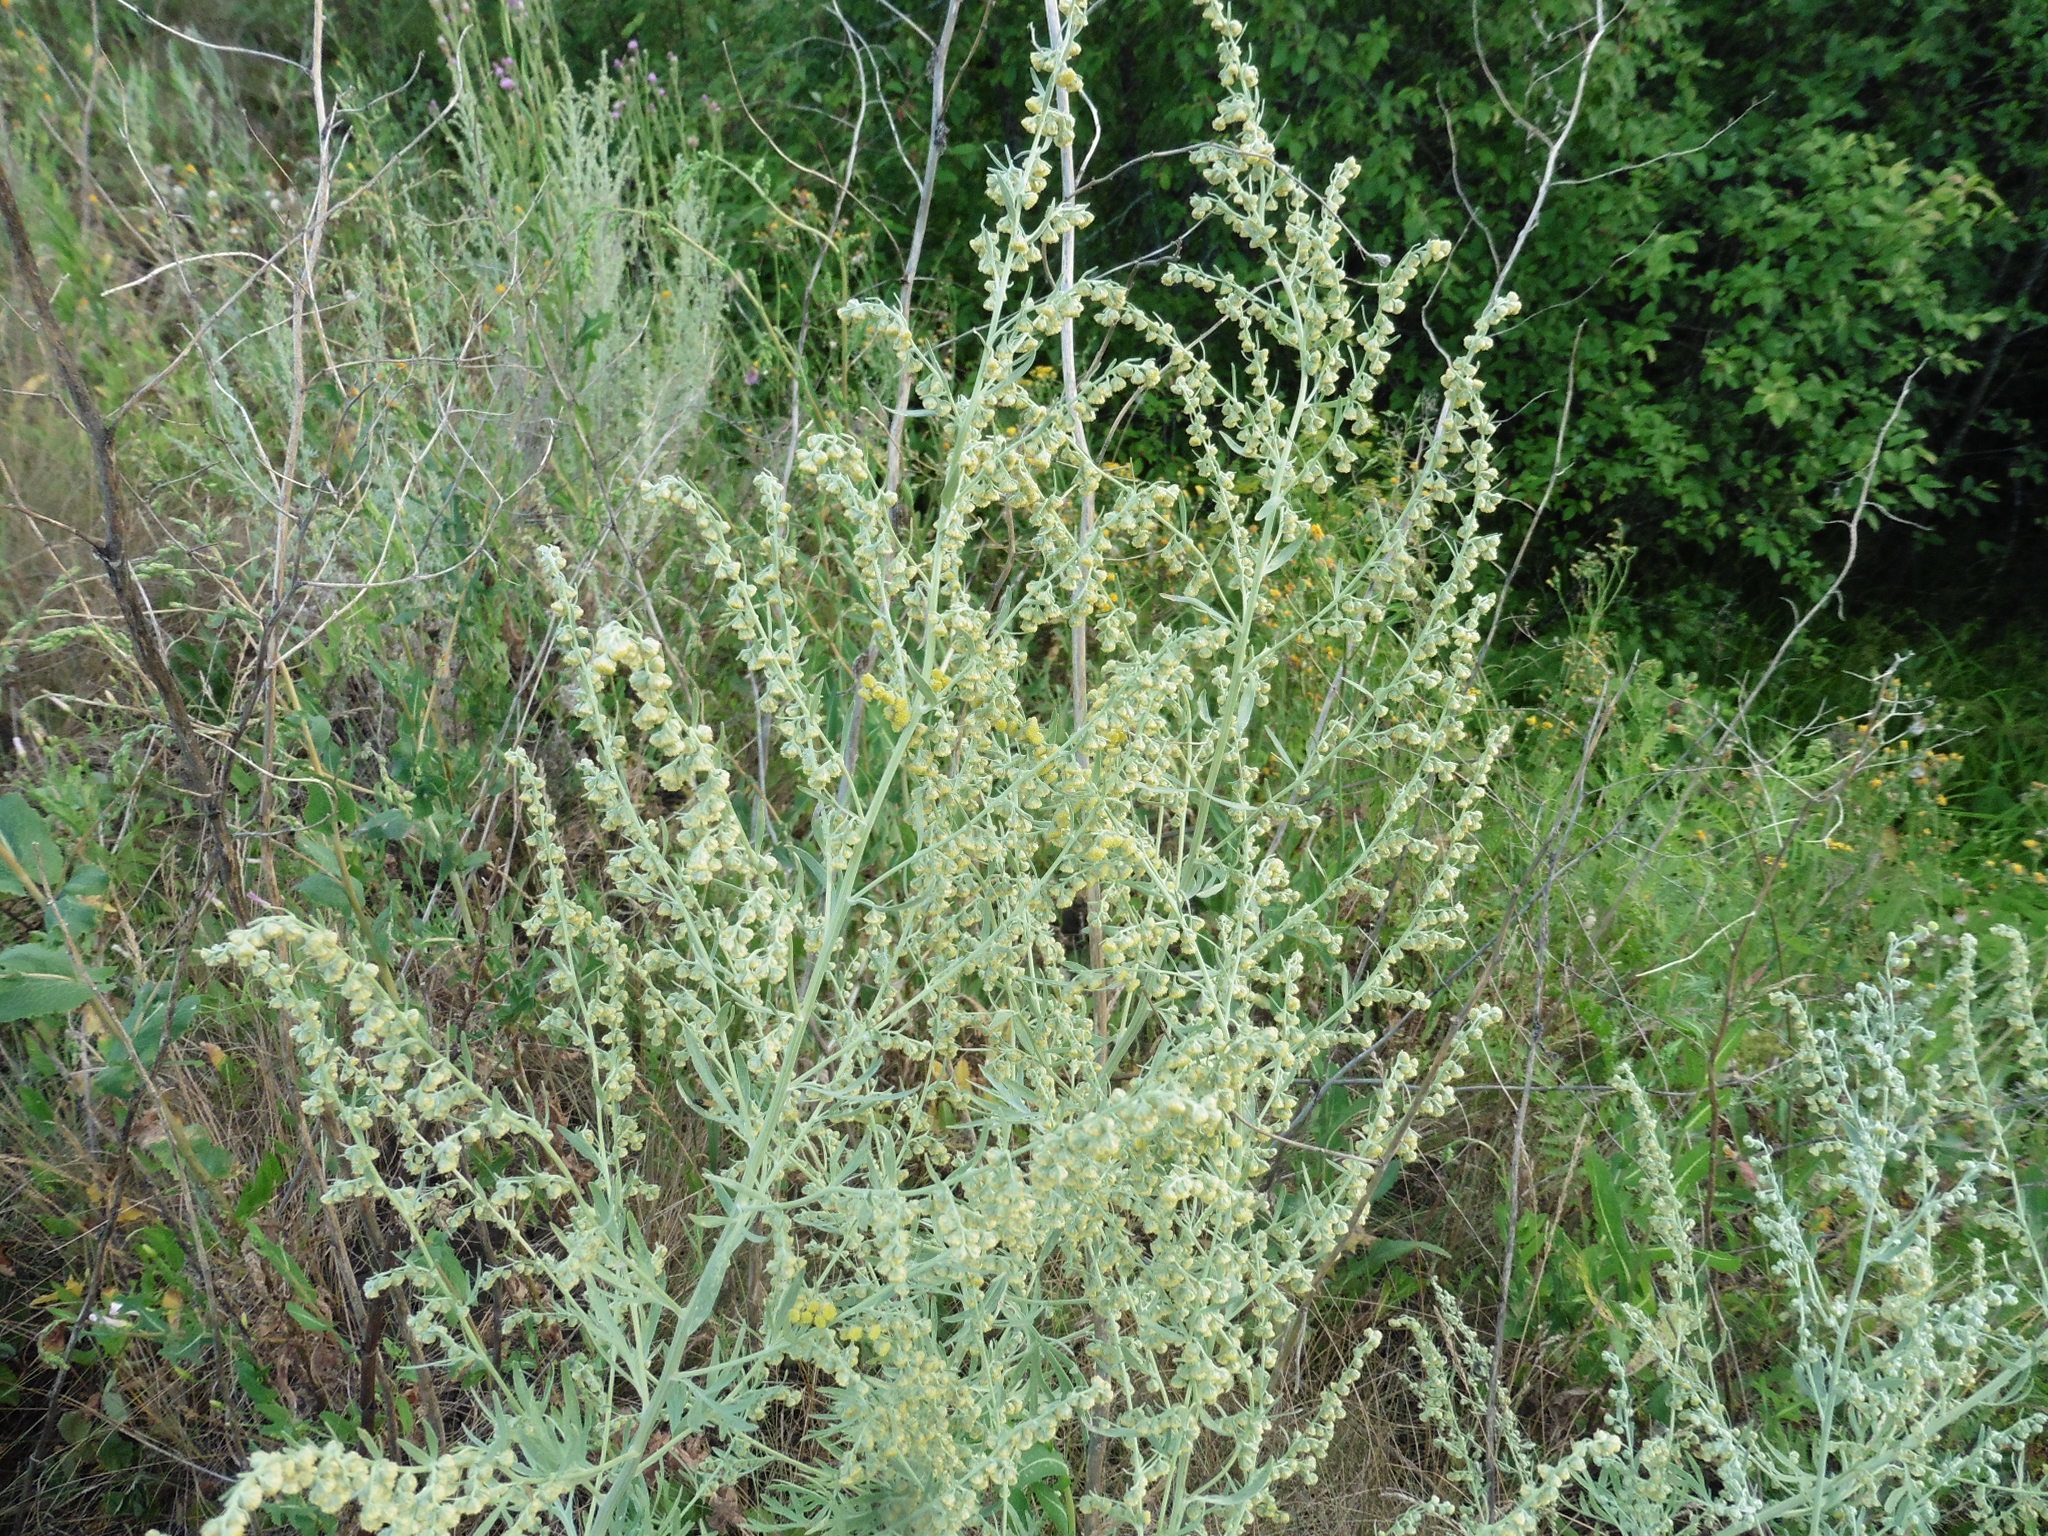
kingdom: Plantae
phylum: Tracheophyta
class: Magnoliopsida
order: Asterales
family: Asteraceae
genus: Artemisia
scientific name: Artemisia absinthium
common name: Wormwood
